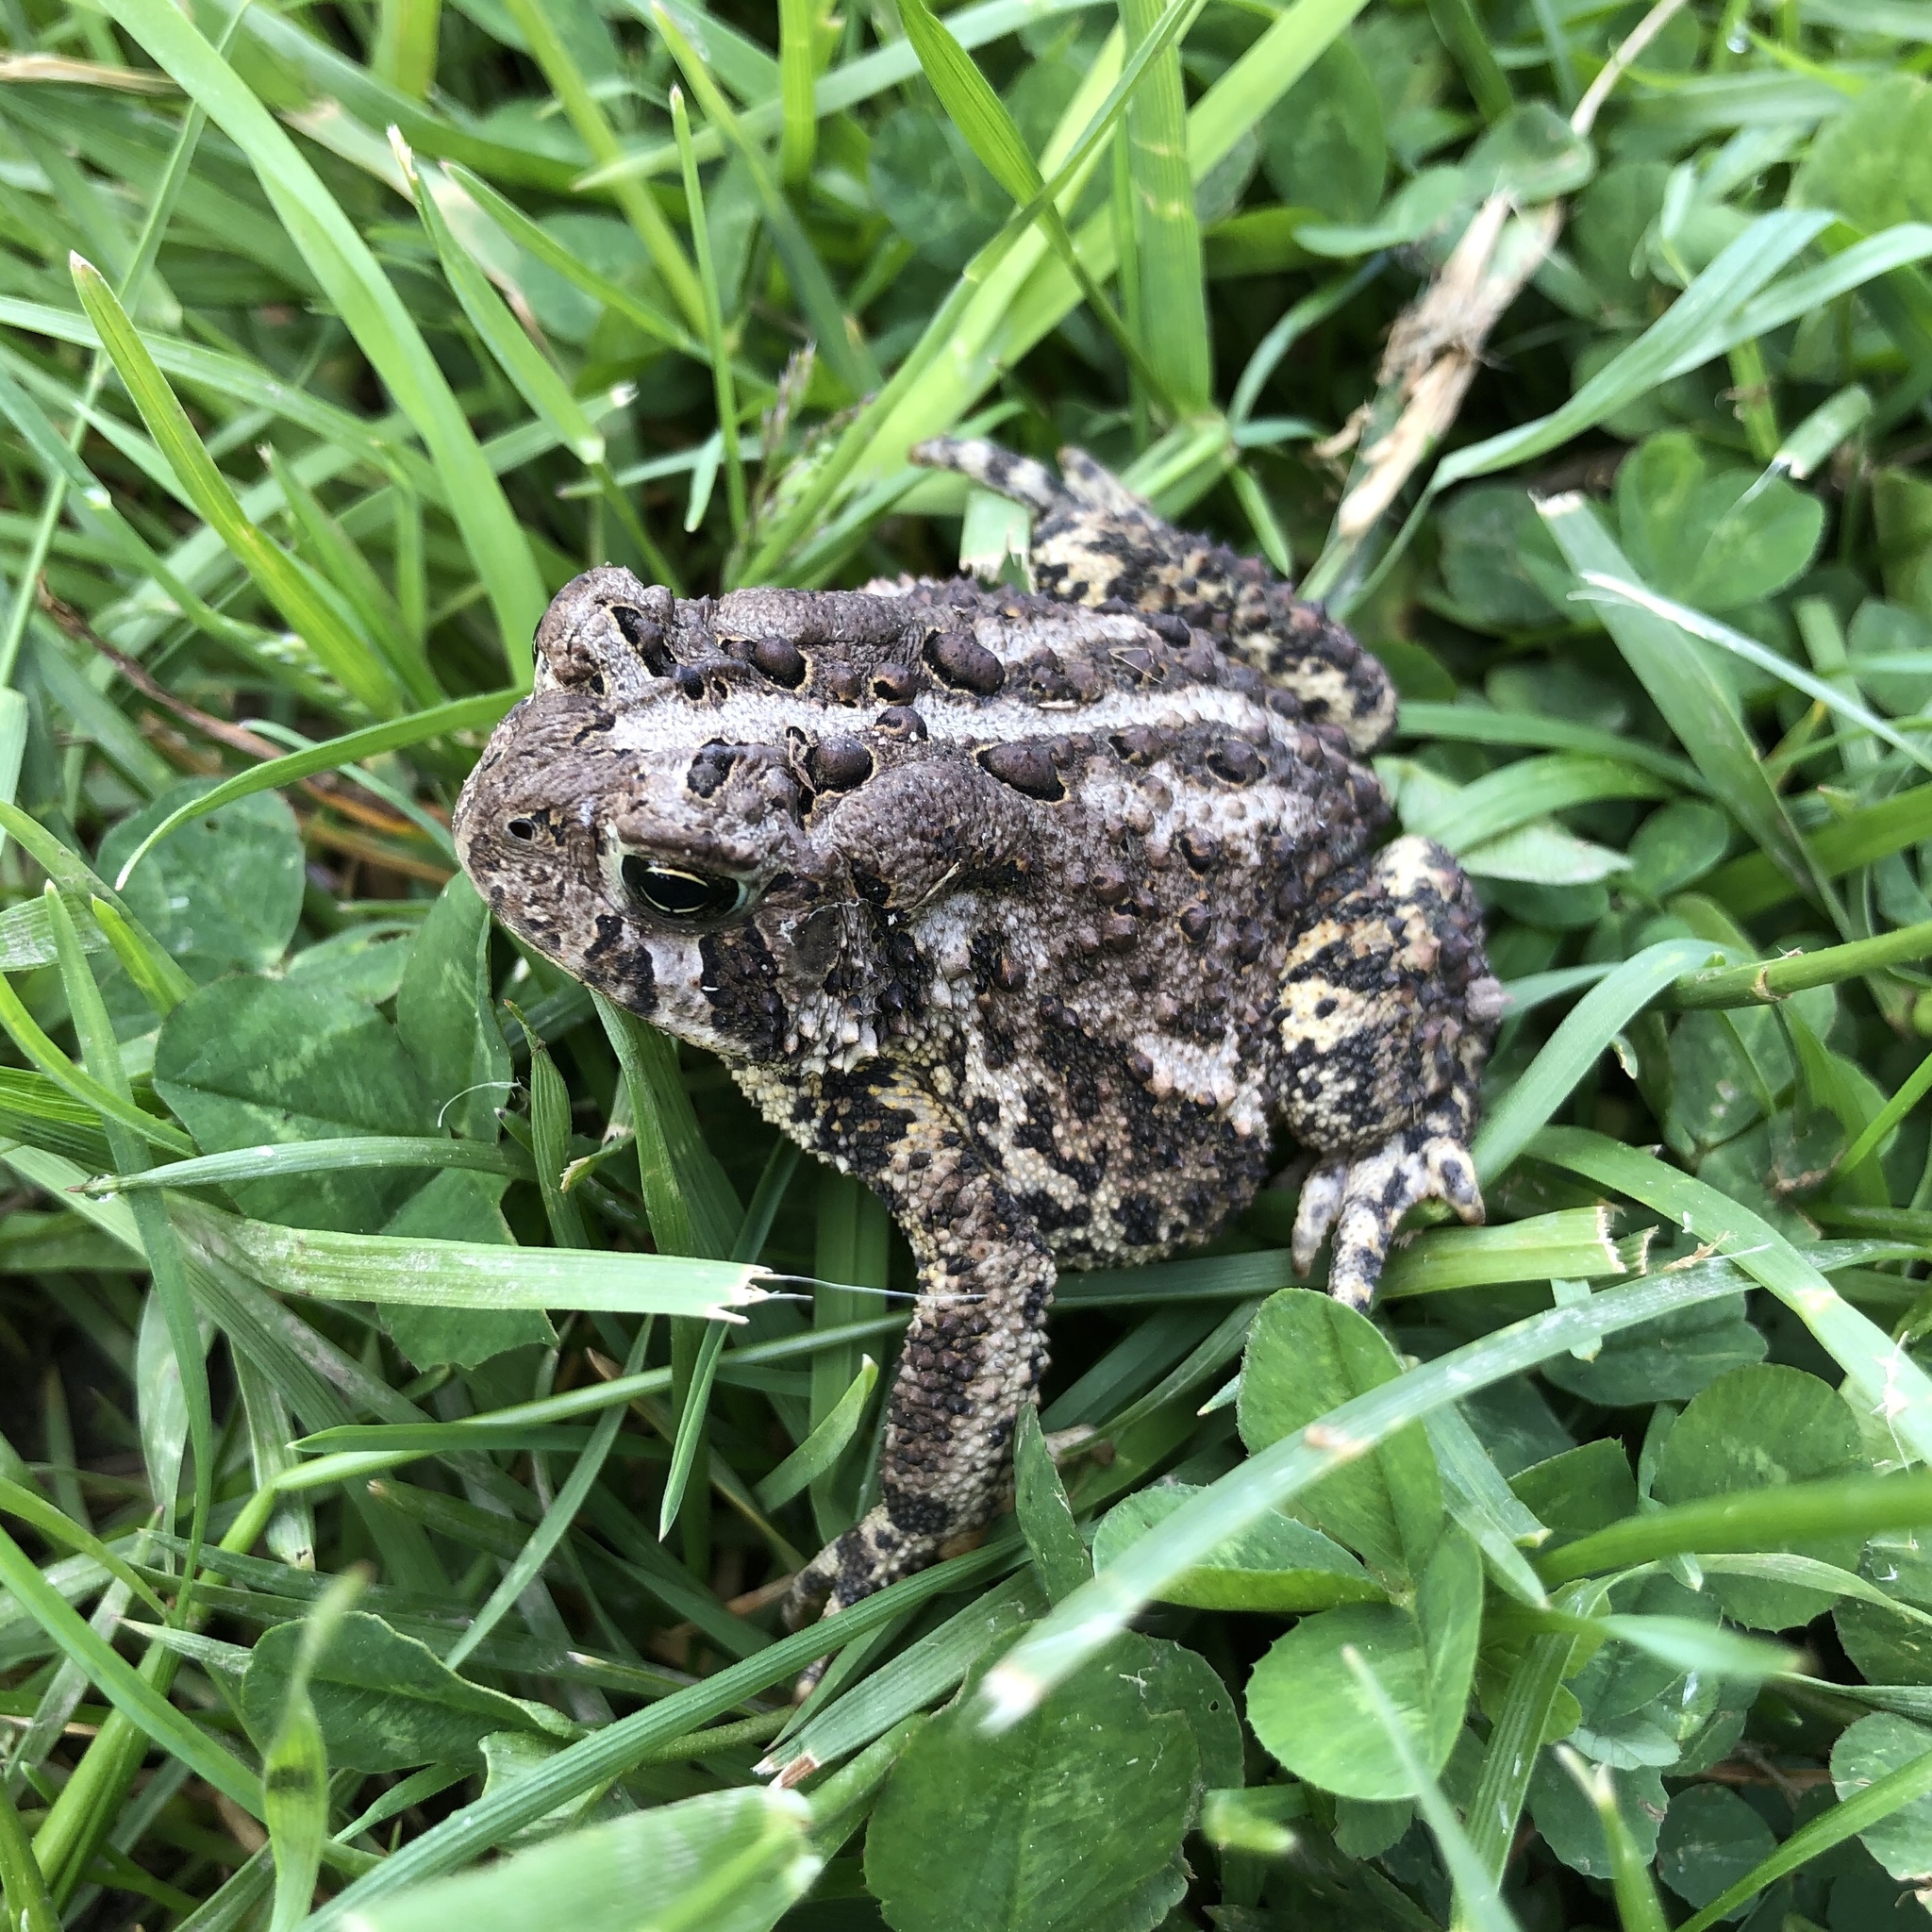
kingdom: Animalia
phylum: Chordata
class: Amphibia
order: Anura
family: Bufonidae
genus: Anaxyrus
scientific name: Anaxyrus americanus
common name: American toad
